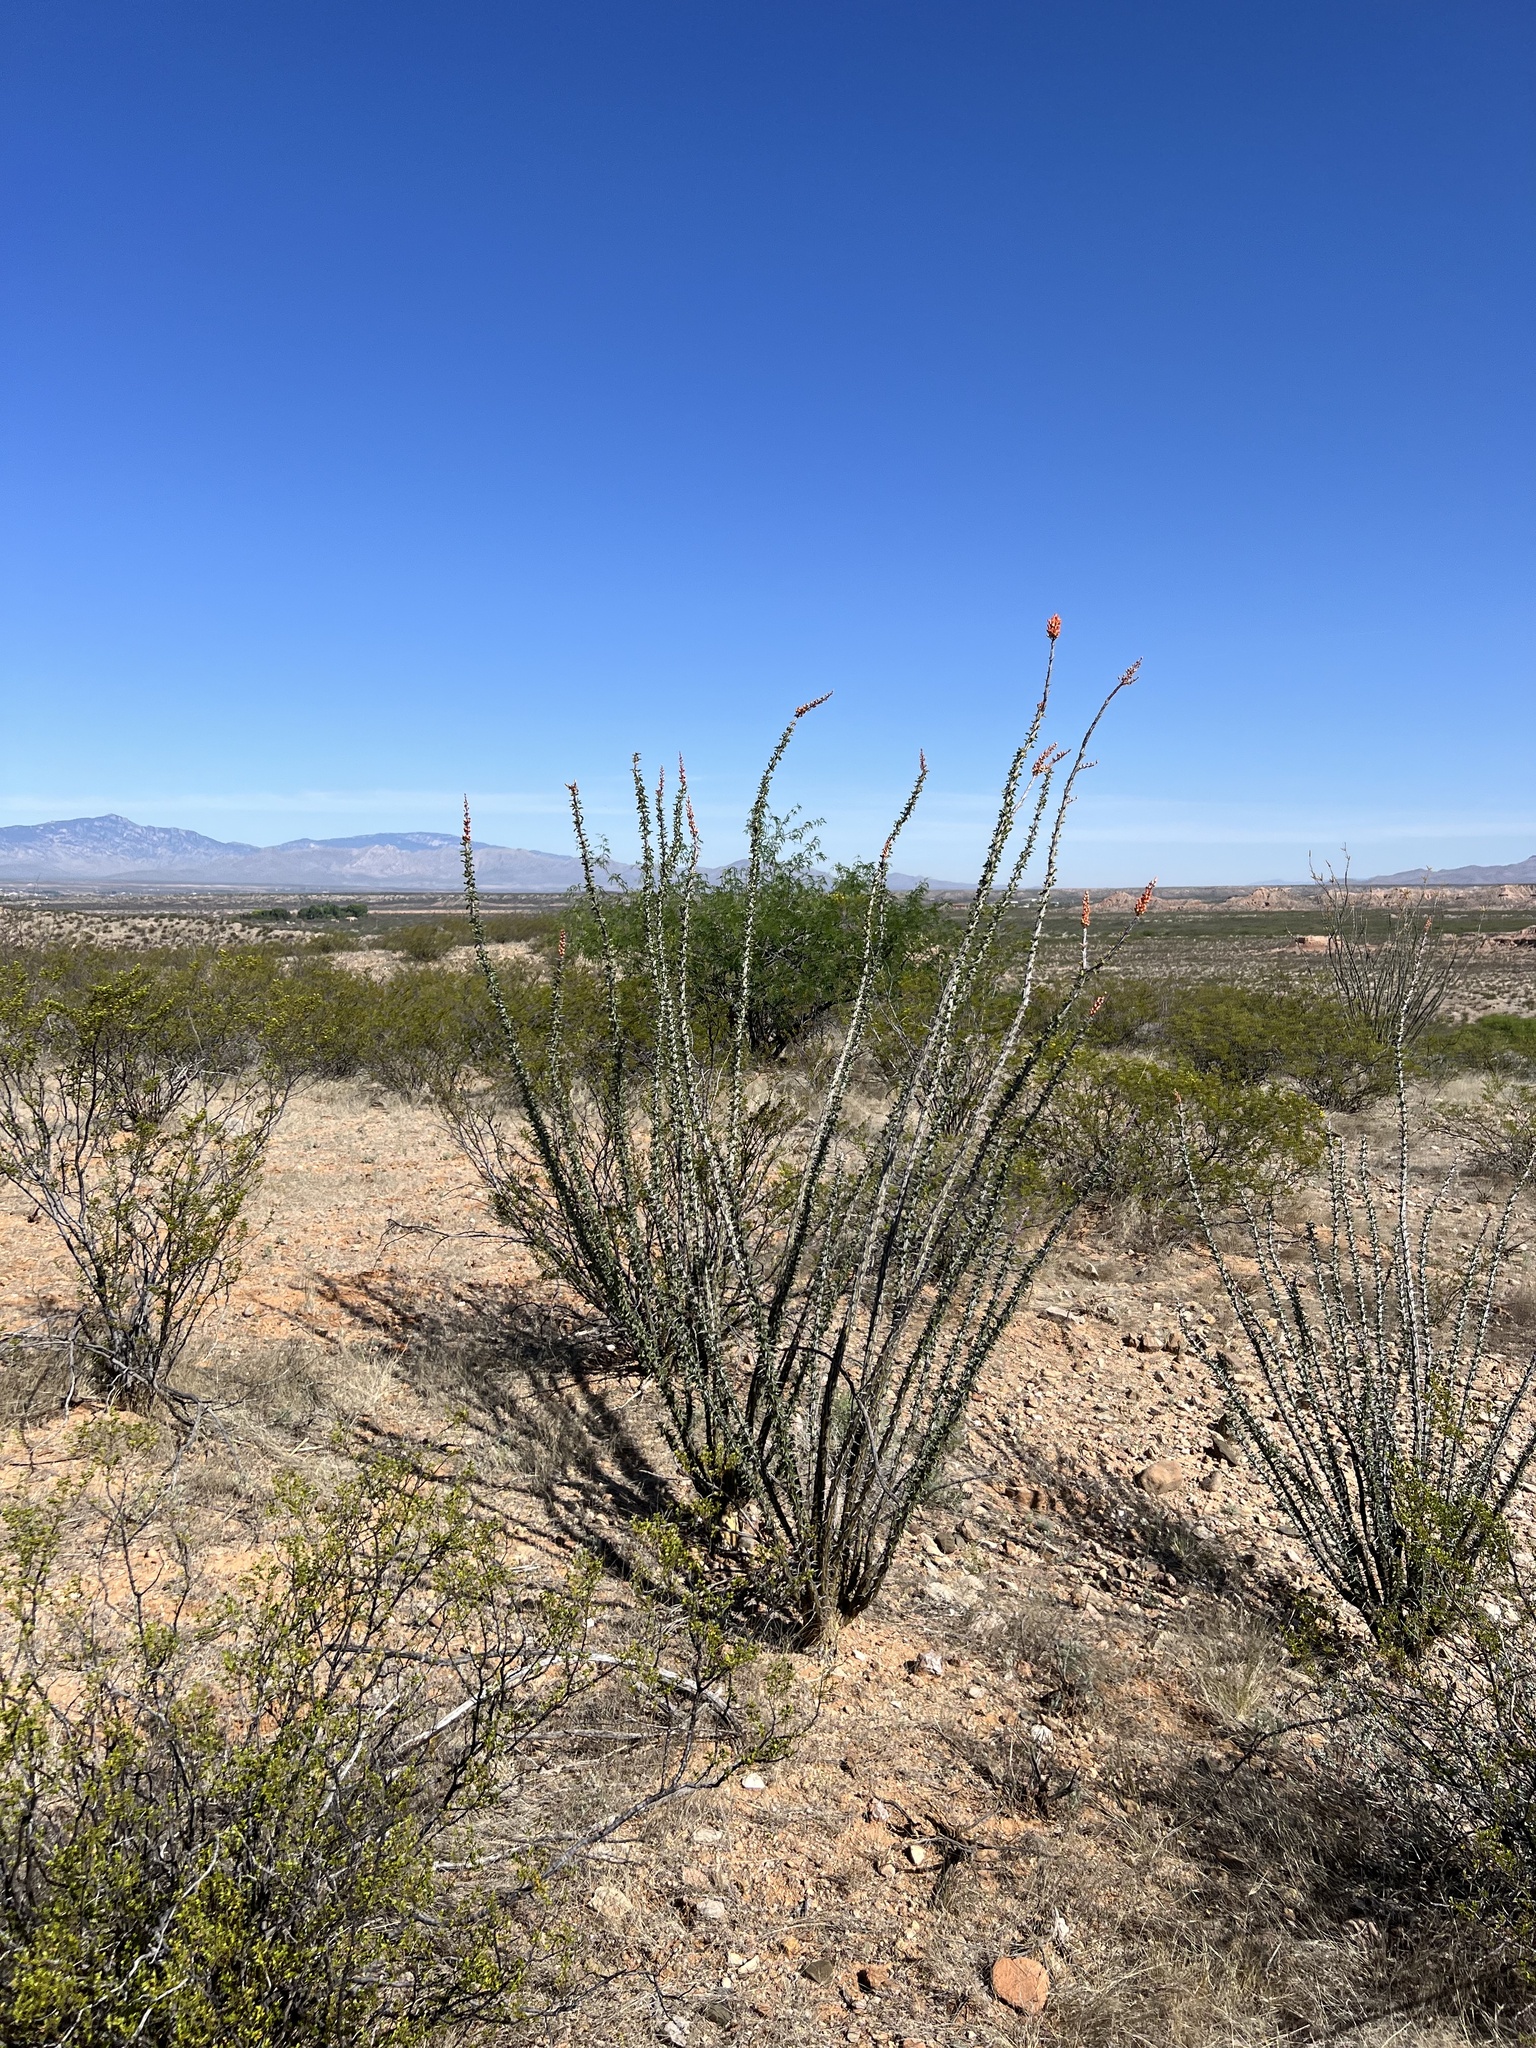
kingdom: Plantae
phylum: Tracheophyta
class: Magnoliopsida
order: Ericales
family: Fouquieriaceae
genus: Fouquieria
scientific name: Fouquieria splendens
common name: Vine-cactus
